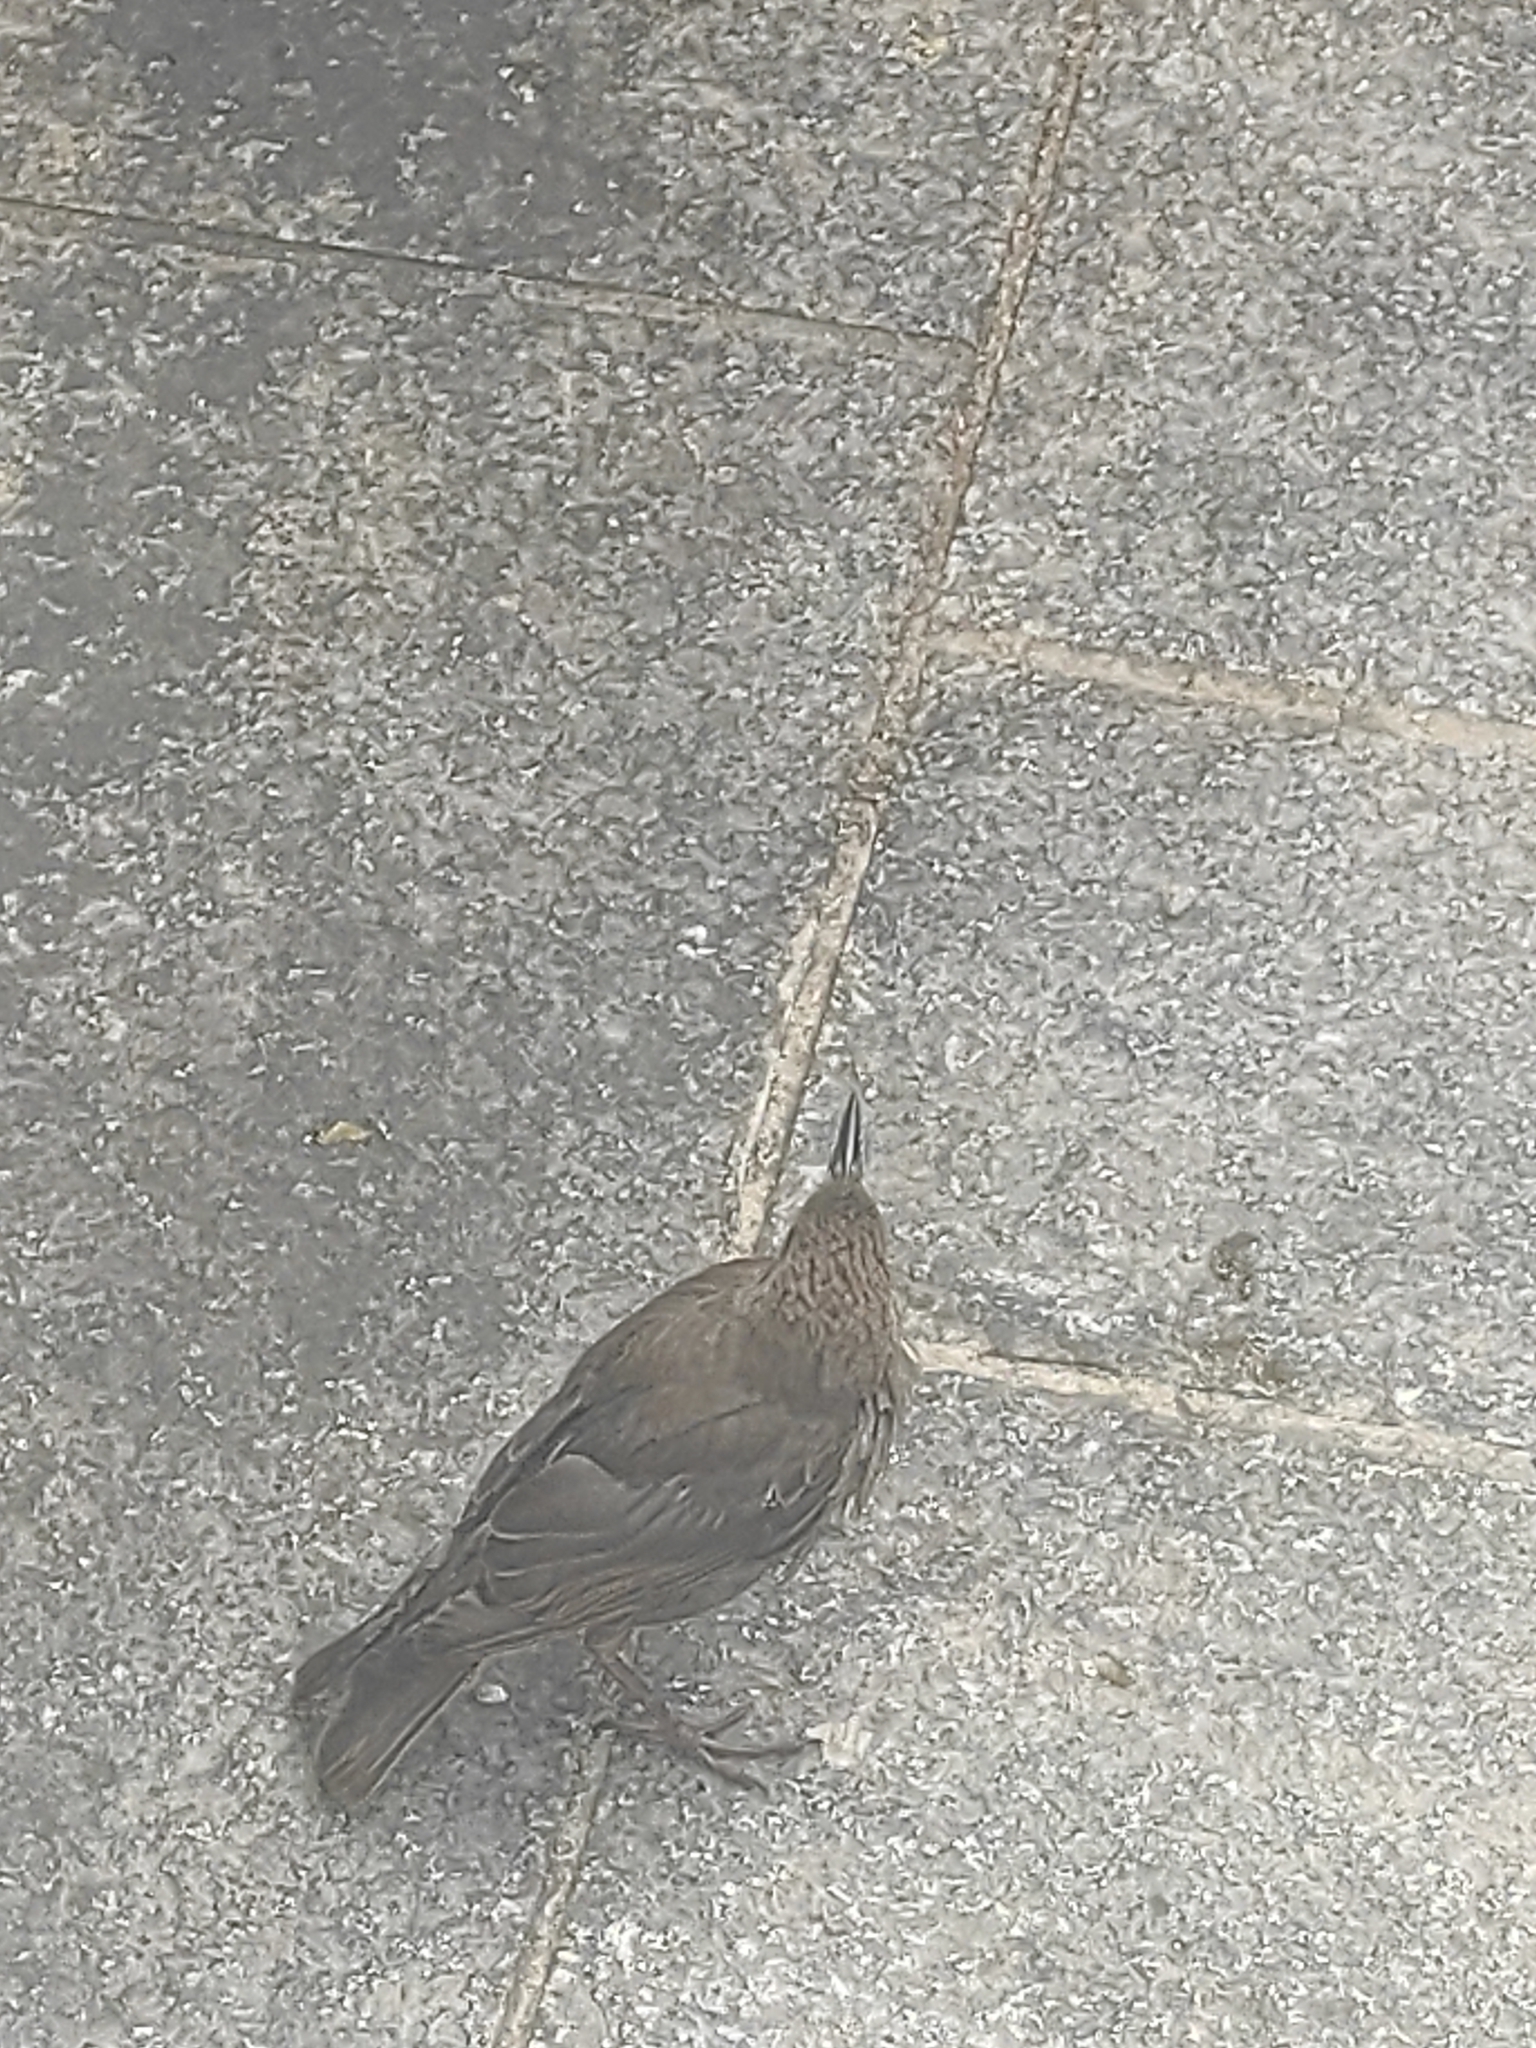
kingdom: Animalia
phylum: Chordata
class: Aves
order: Passeriformes
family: Sturnidae
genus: Sturnus
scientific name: Sturnus vulgaris
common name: Common starling
